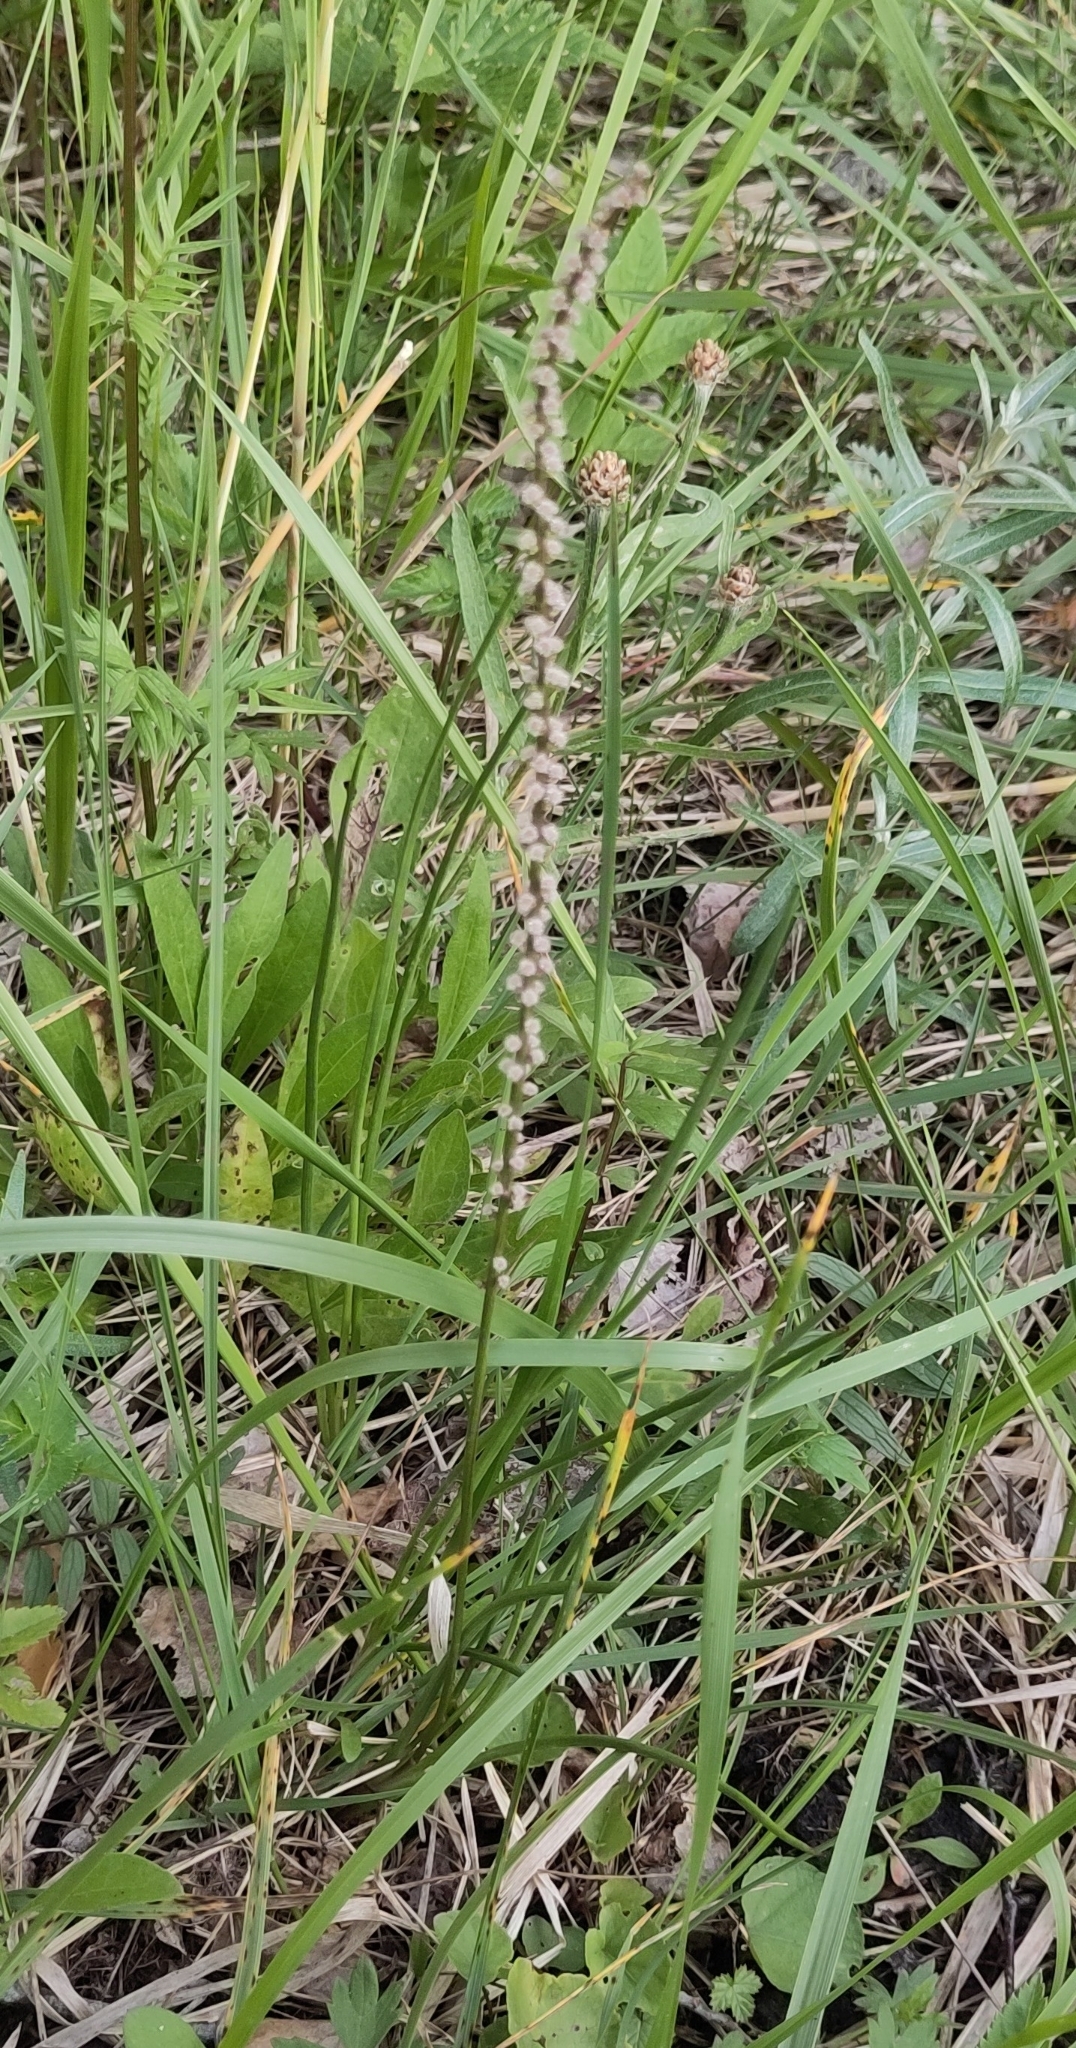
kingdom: Plantae
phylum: Tracheophyta
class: Liliopsida
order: Alismatales
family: Juncaginaceae
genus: Triglochin
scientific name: Triglochin maritima
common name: Sea arrowgrass
